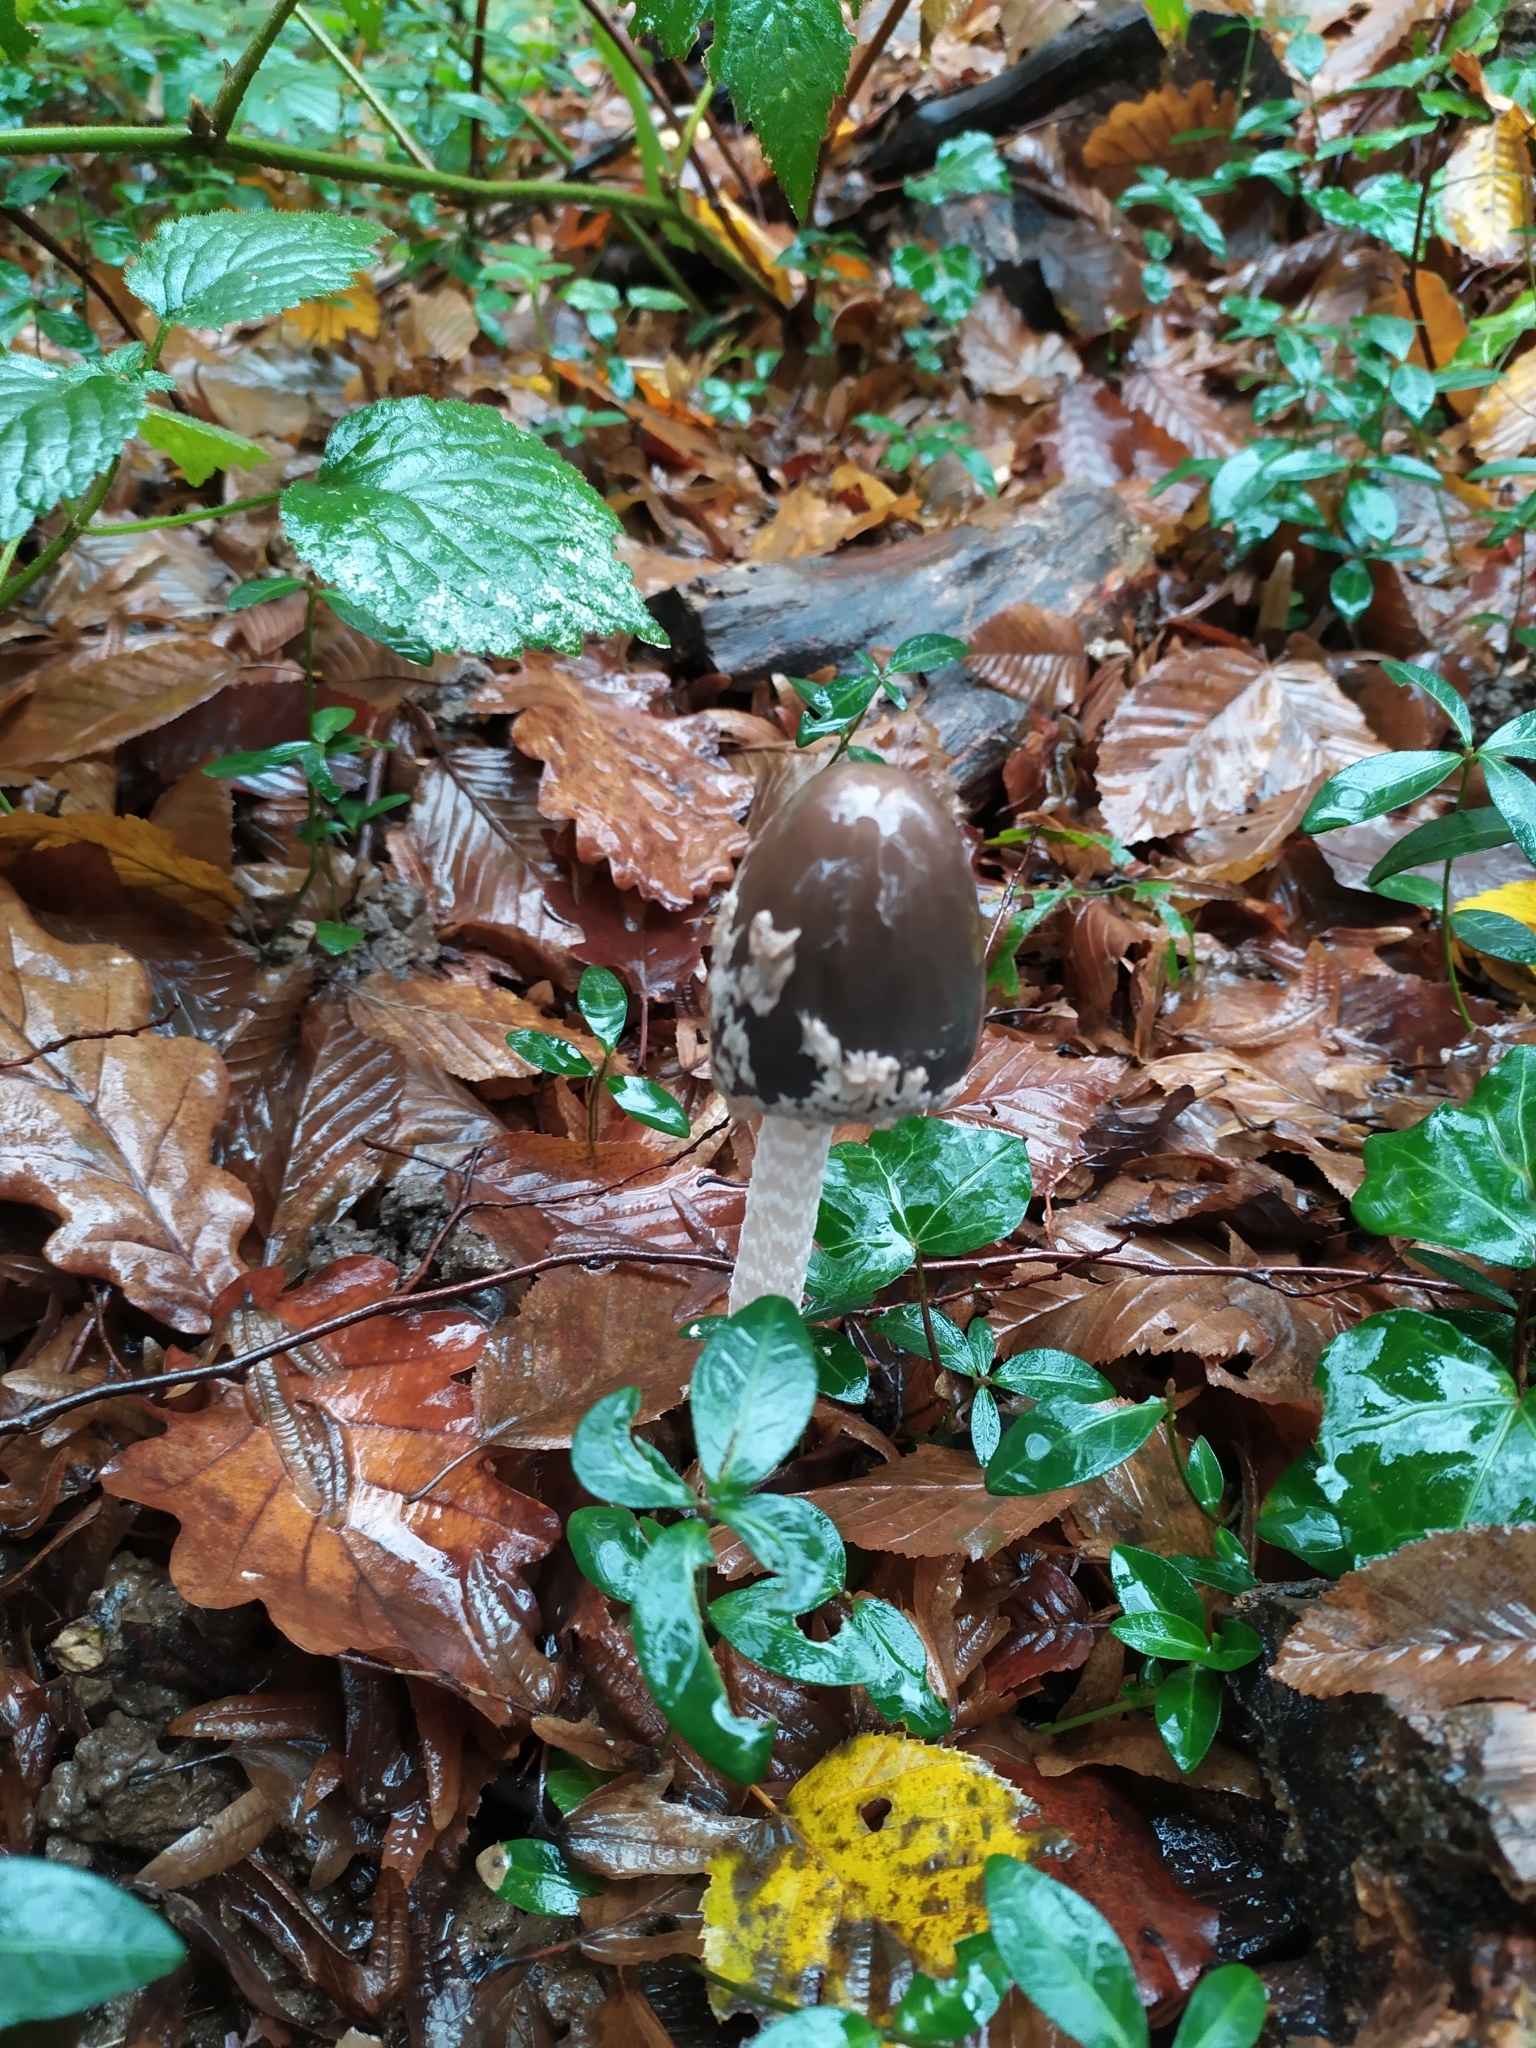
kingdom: Fungi
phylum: Basidiomycota
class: Agaricomycetes
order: Agaricales
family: Psathyrellaceae
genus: Coprinopsis
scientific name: Coprinopsis picacea
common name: Magpie inkcap
